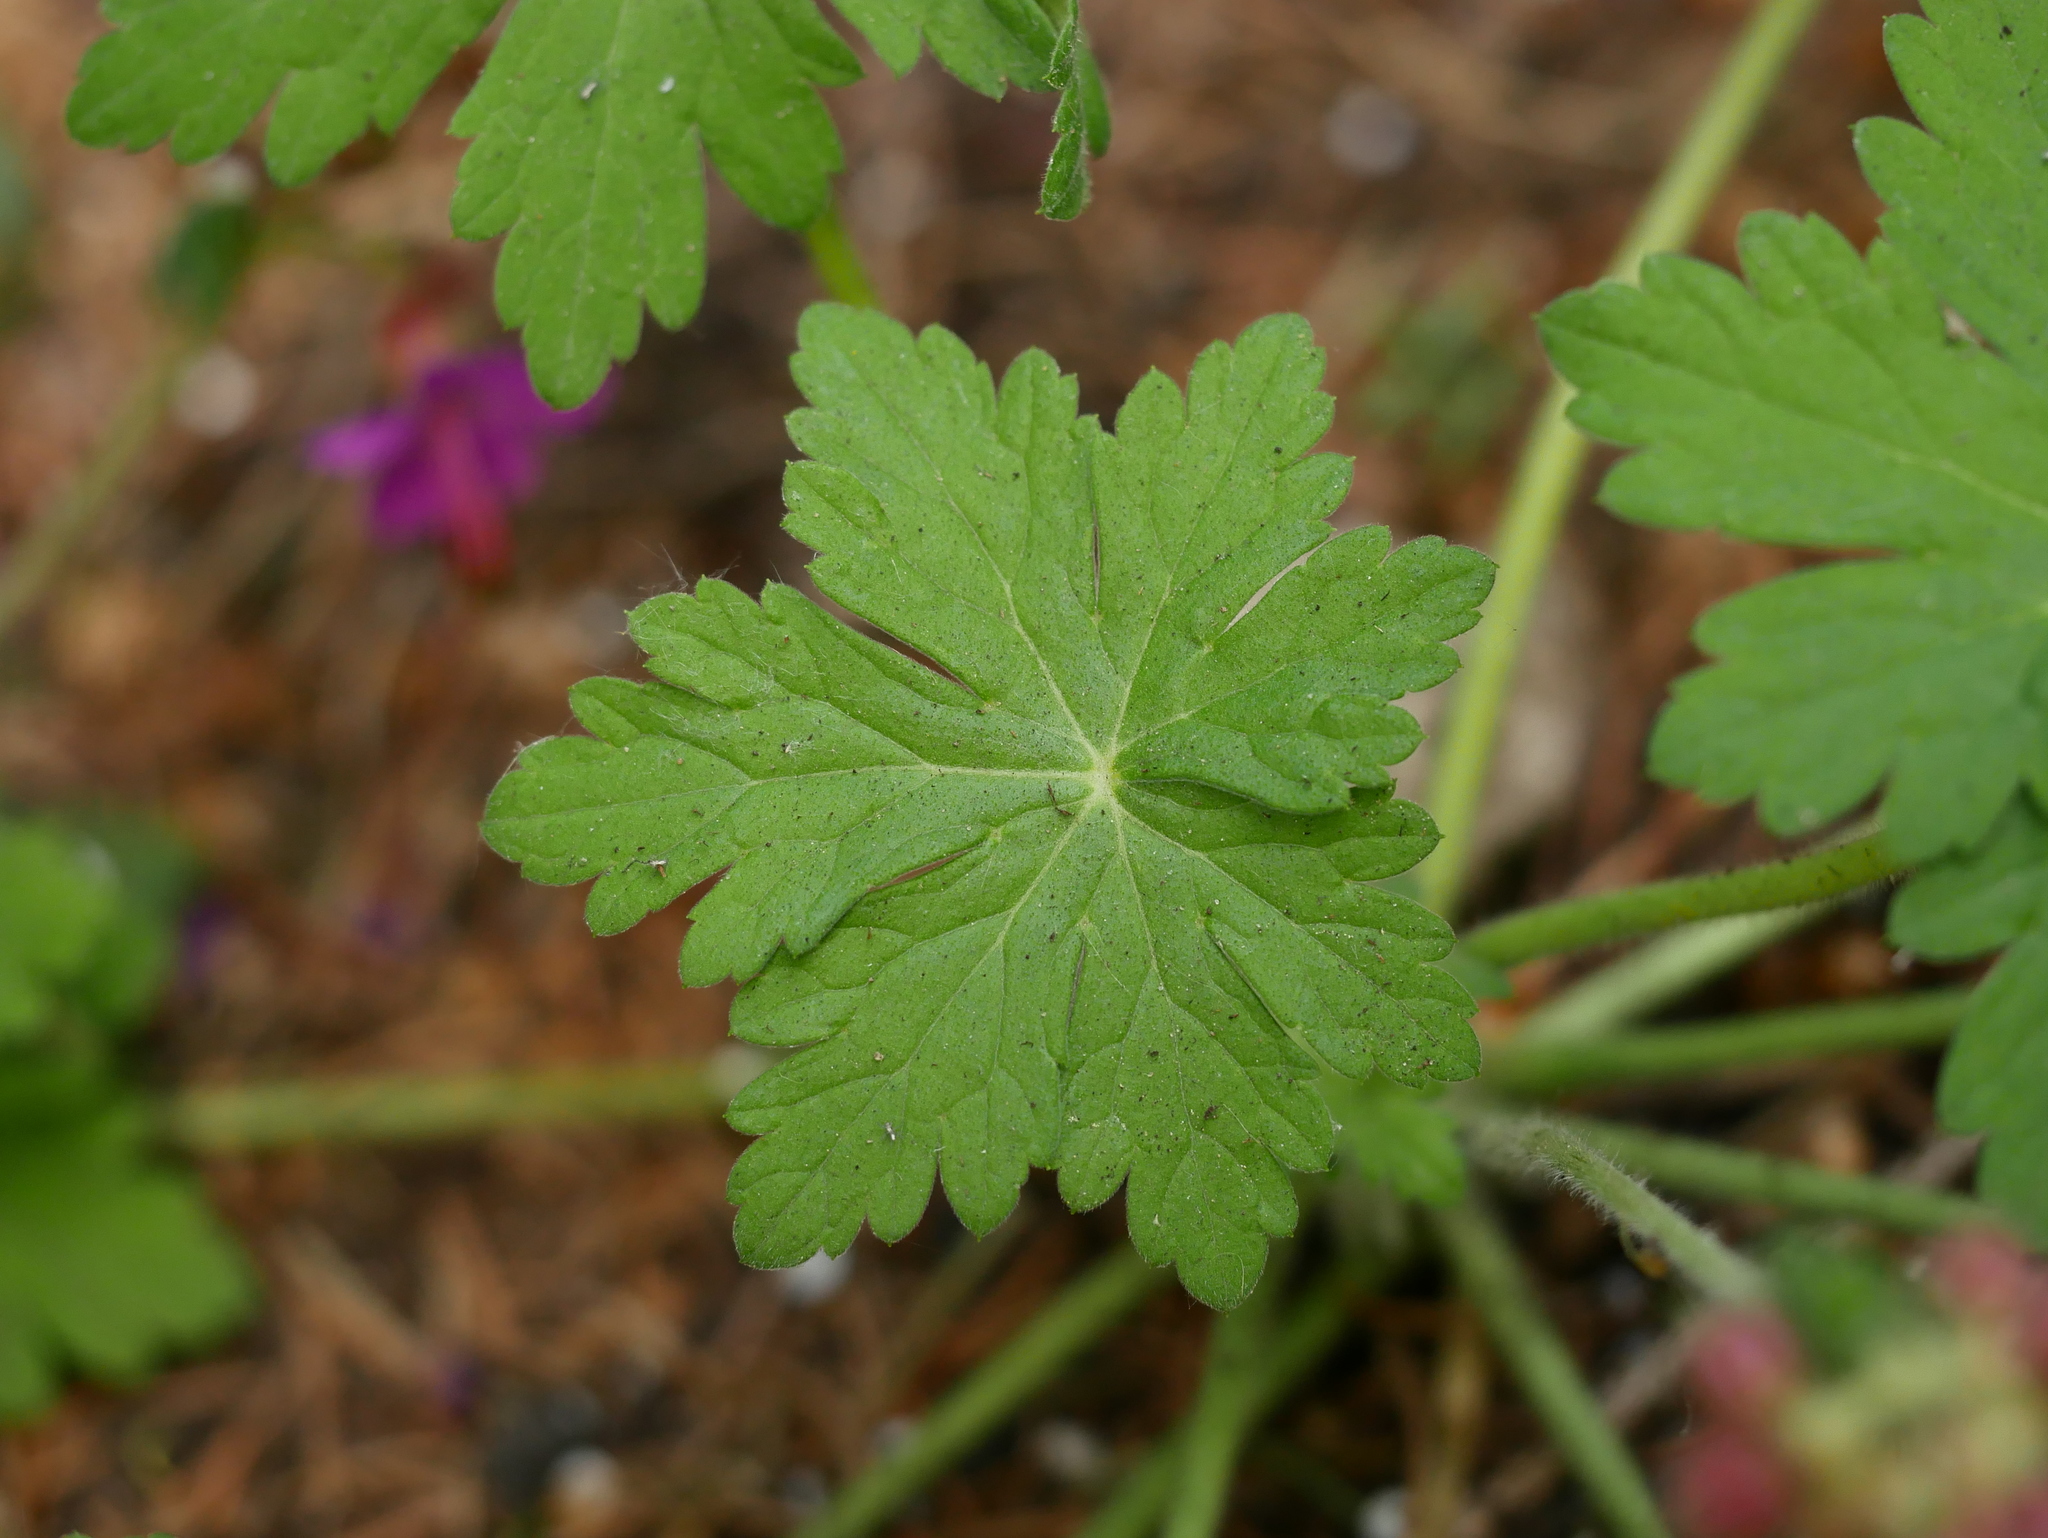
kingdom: Plantae
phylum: Tracheophyta
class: Magnoliopsida
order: Geraniales
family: Geraniaceae
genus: Geranium
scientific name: Geranium macrorrhizum
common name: Rock crane's-bill
